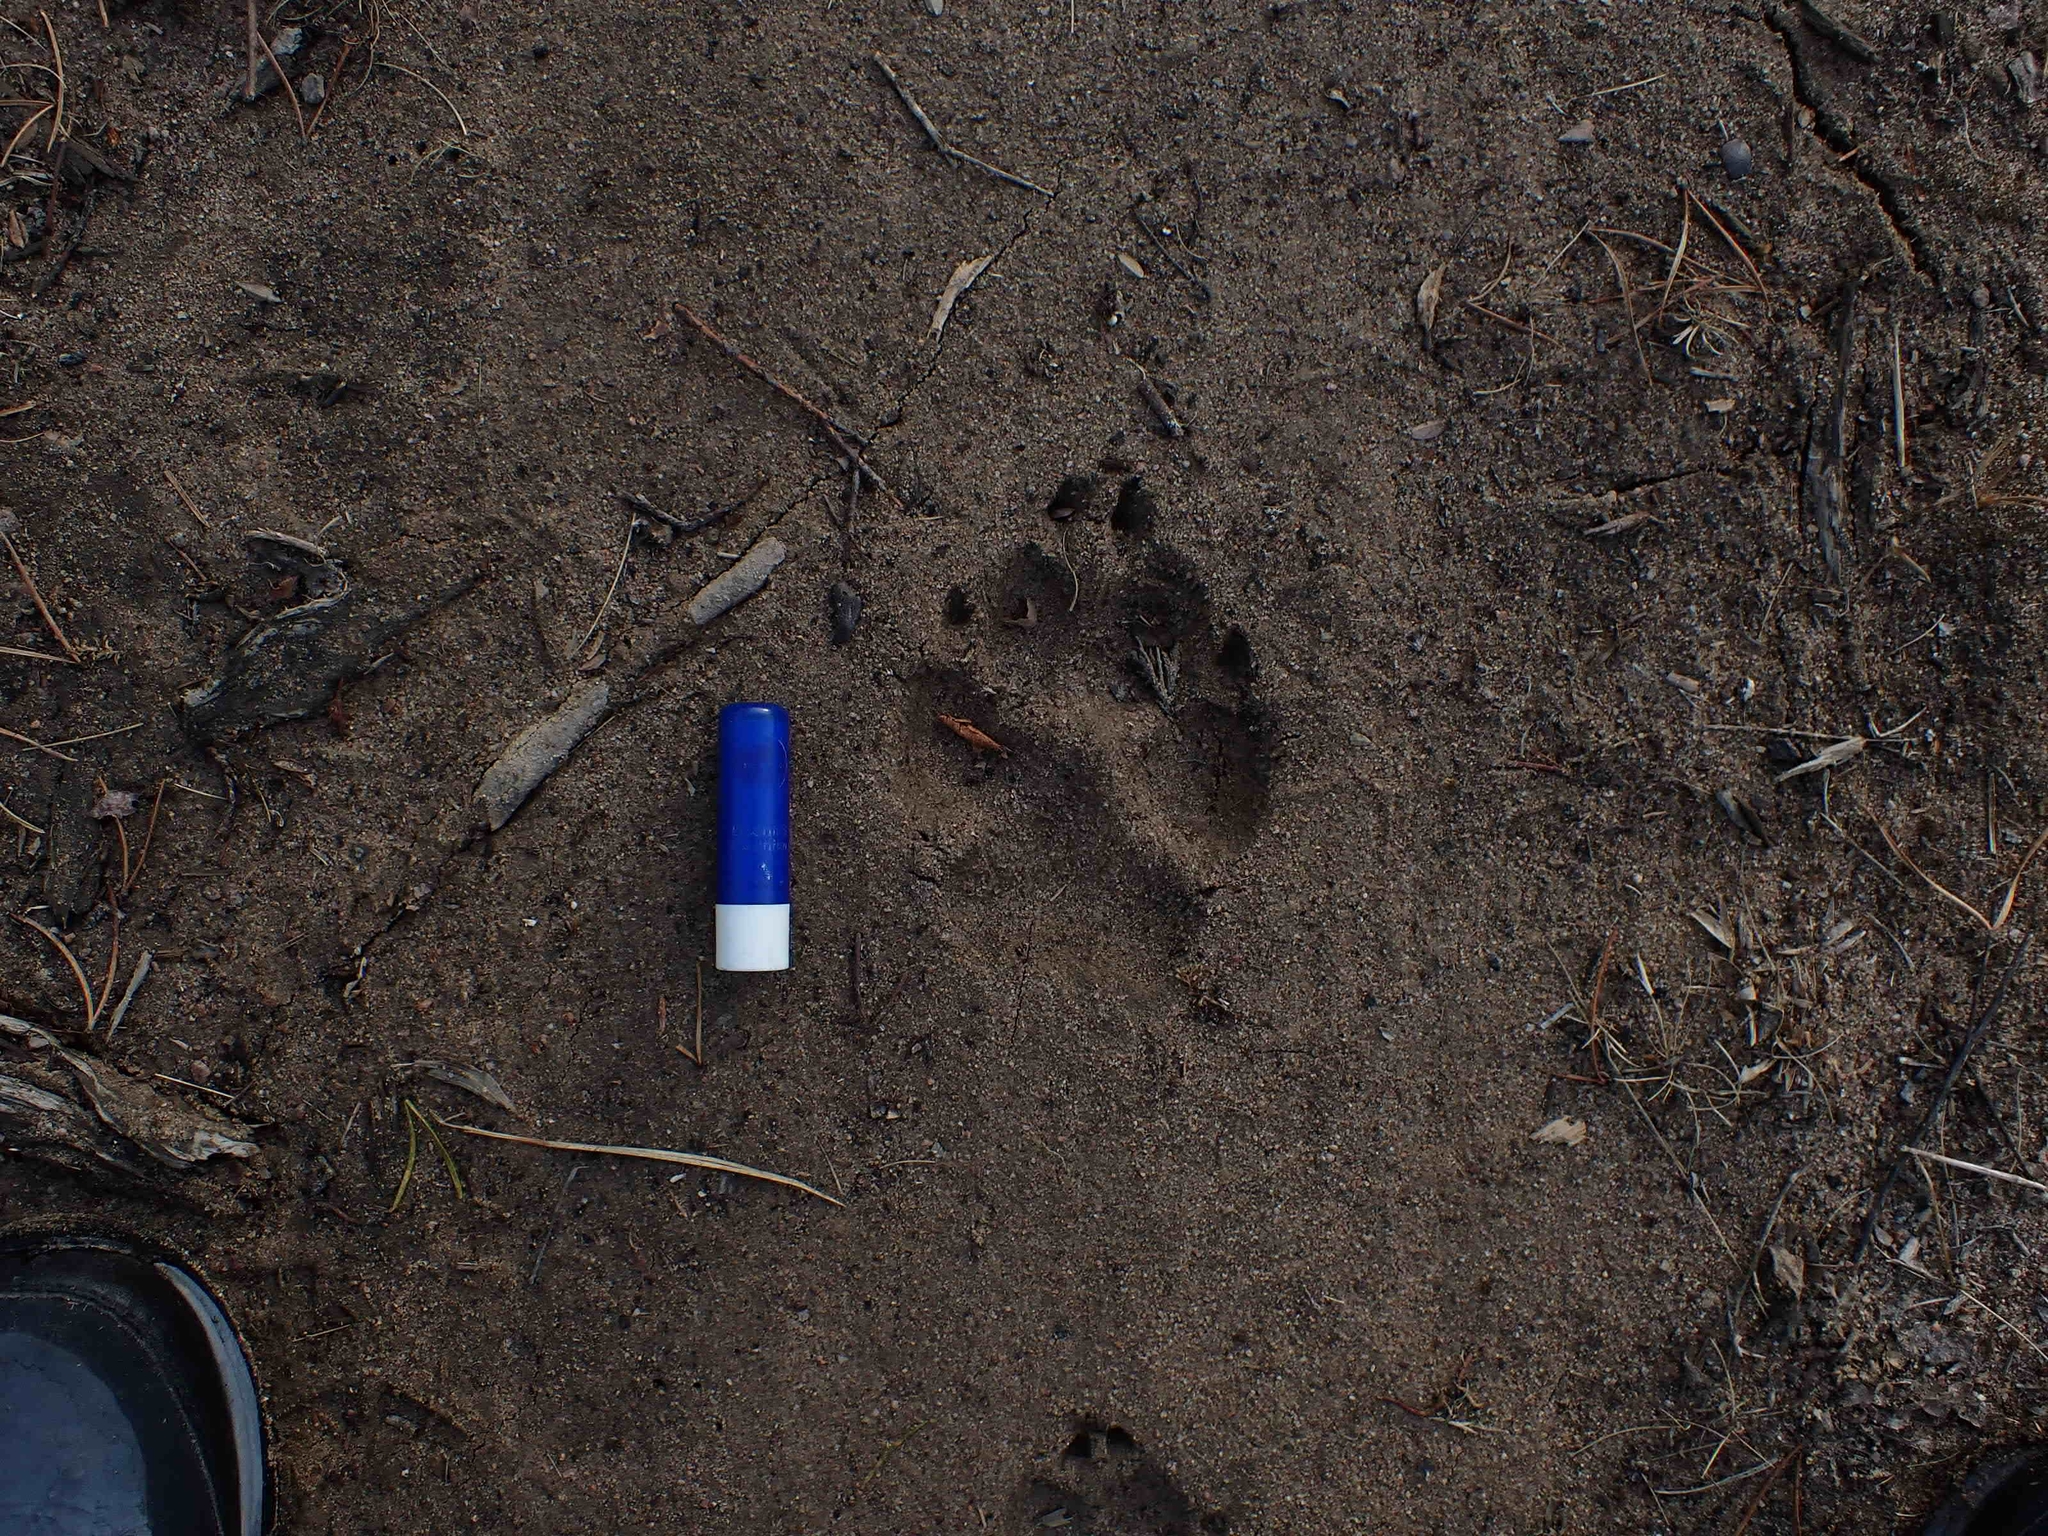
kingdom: Animalia
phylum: Chordata
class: Mammalia
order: Carnivora
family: Canidae
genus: Canis
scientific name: Canis lupus
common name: Gray wolf
